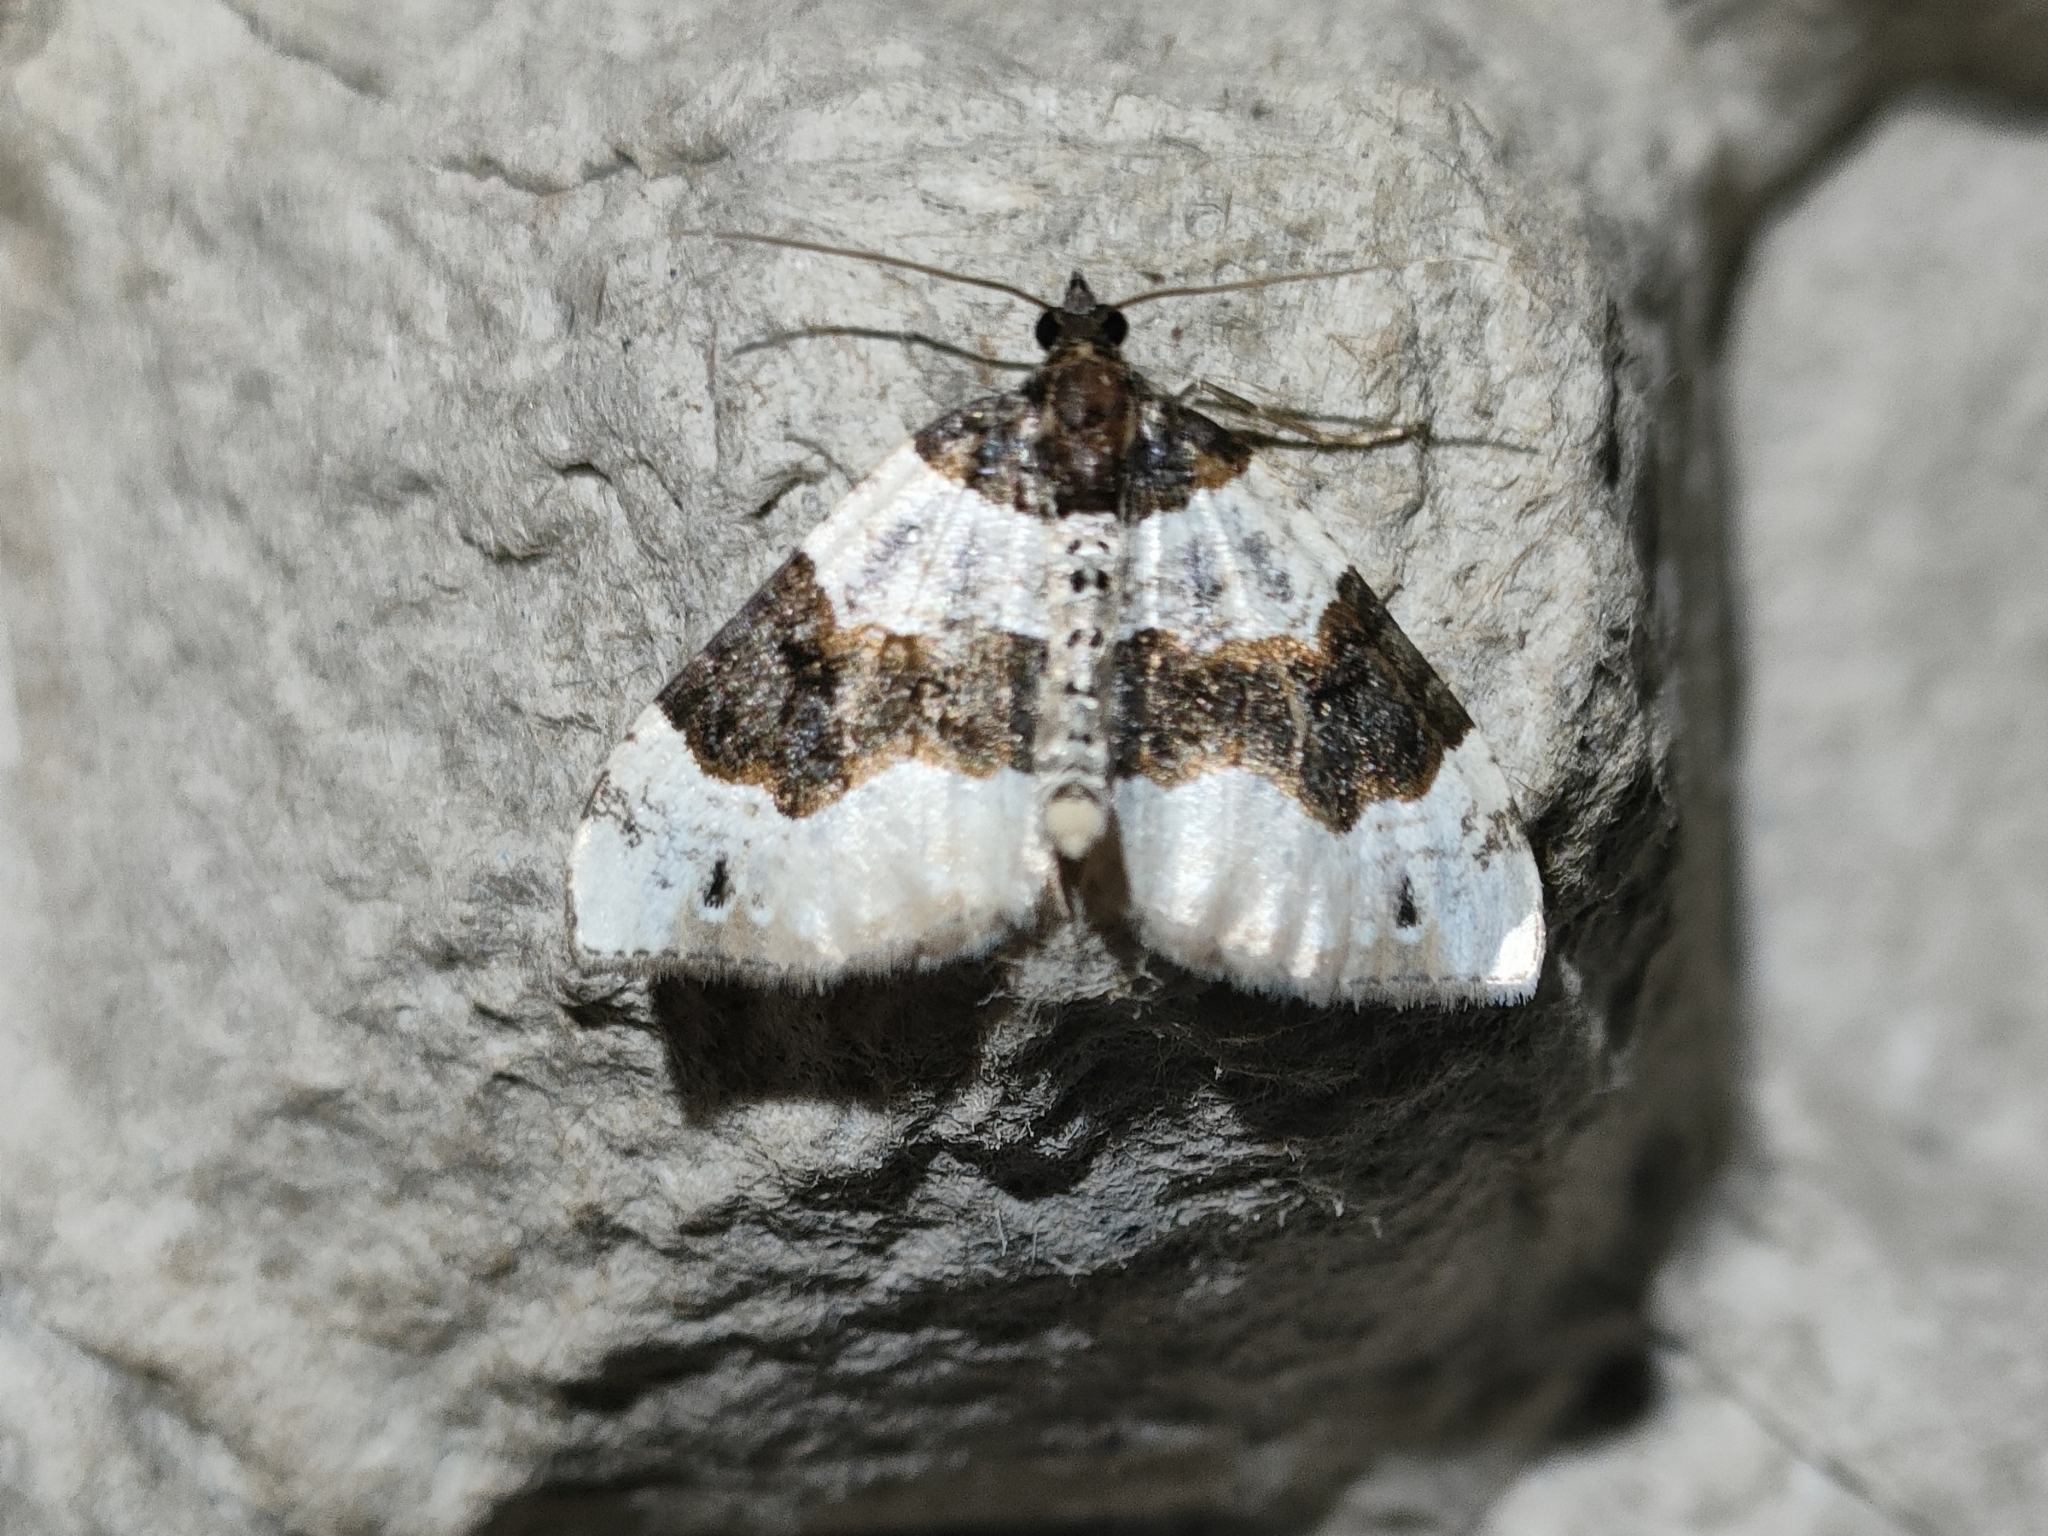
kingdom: Animalia
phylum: Arthropoda
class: Insecta
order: Lepidoptera
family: Geometridae
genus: Cosmorhoe
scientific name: Cosmorhoe ocellata
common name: Purple bar
